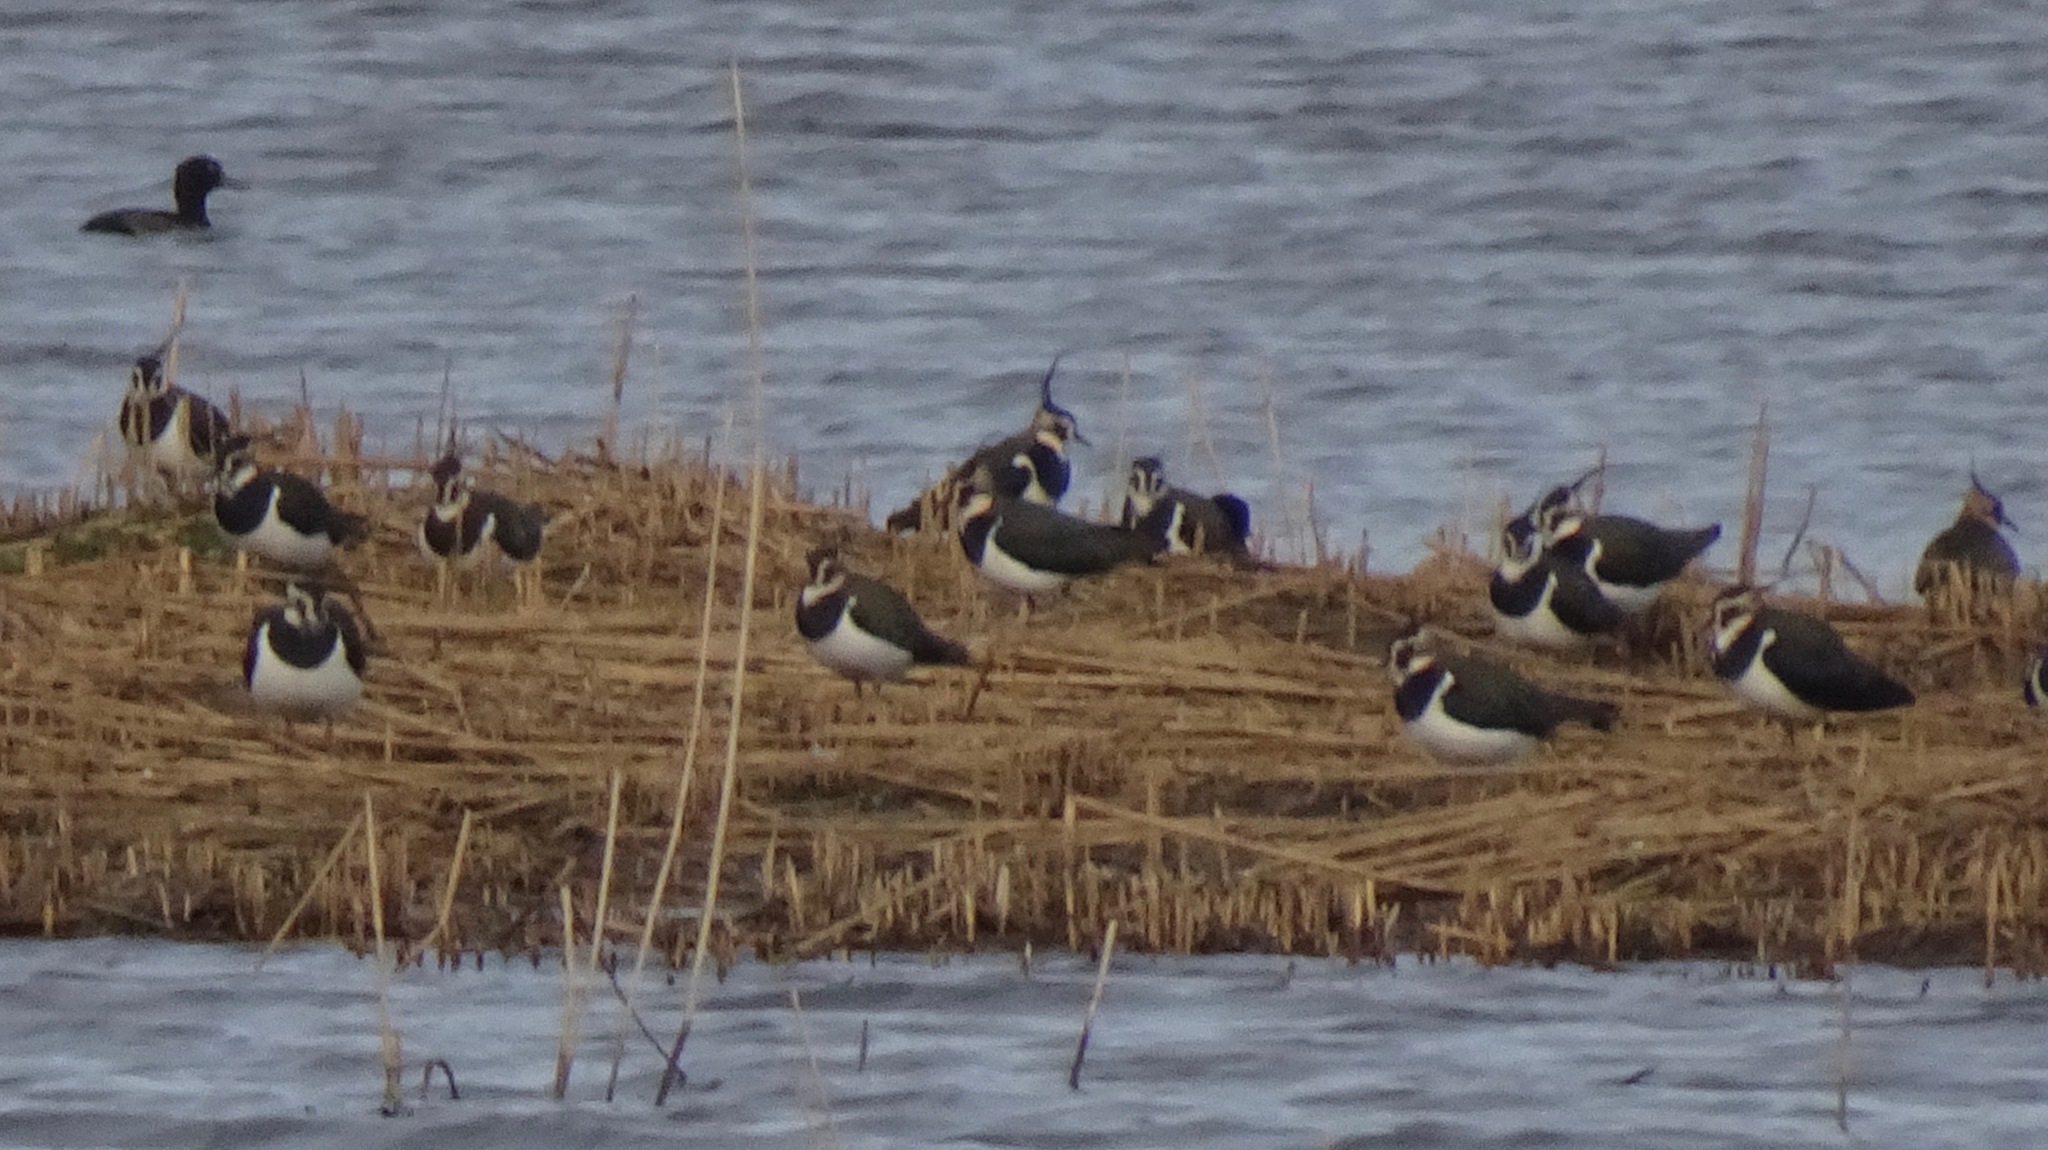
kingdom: Animalia
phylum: Chordata
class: Aves
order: Charadriiformes
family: Charadriidae
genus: Vanellus
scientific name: Vanellus vanellus
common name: Northern lapwing
